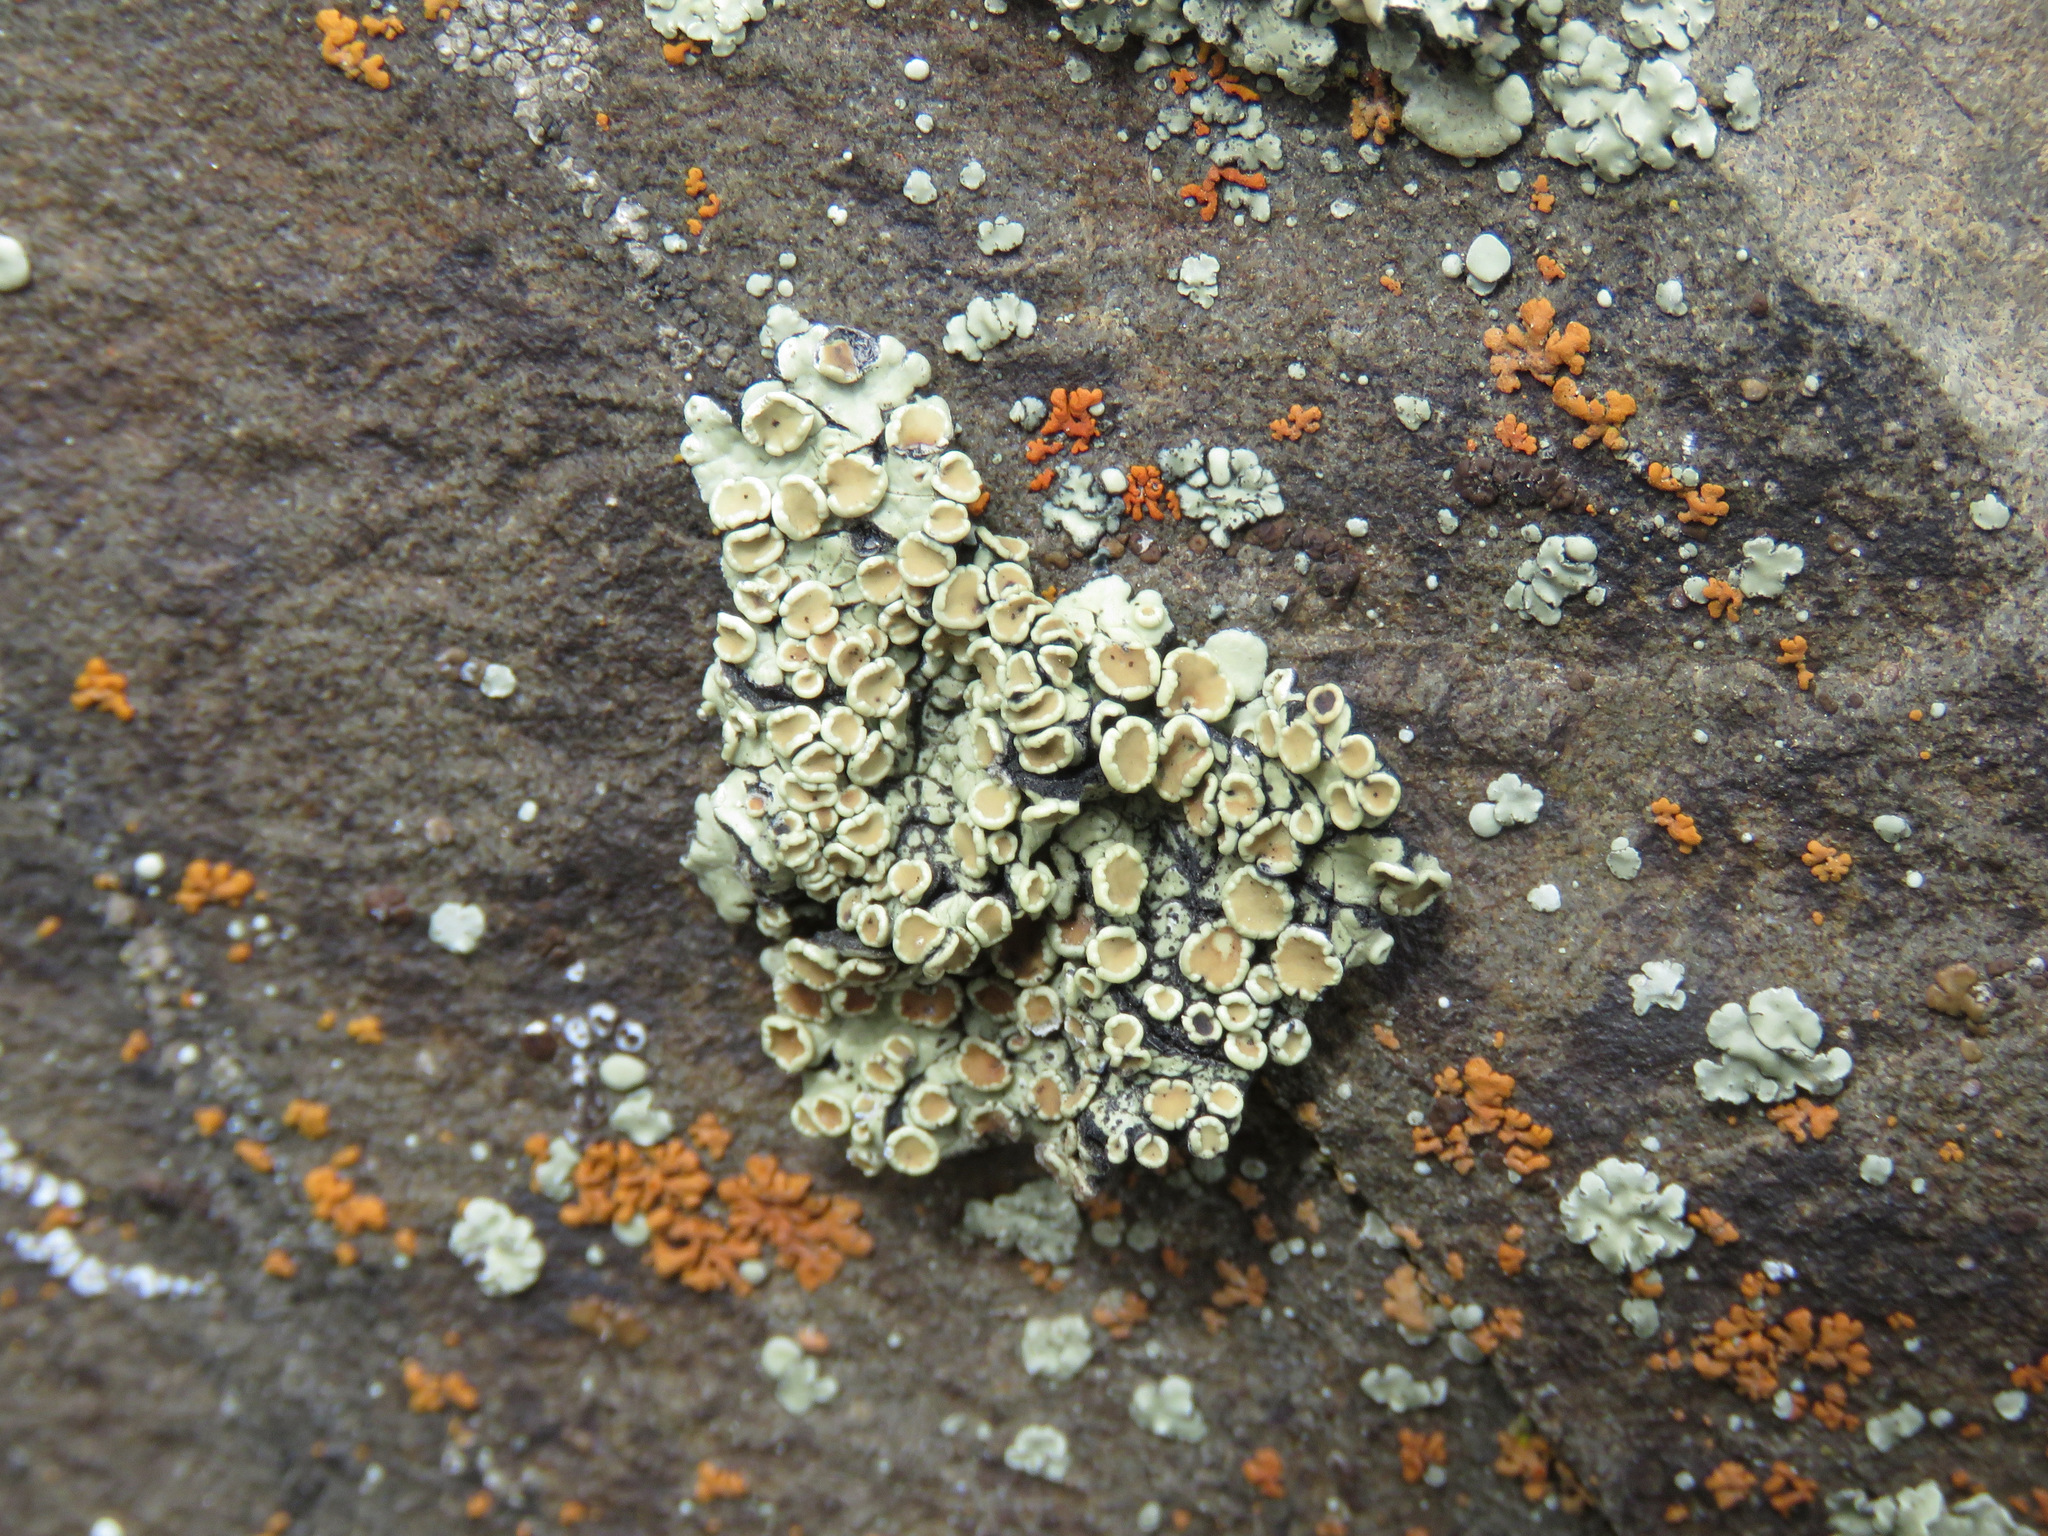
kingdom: Fungi
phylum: Ascomycota
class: Lecanoromycetes
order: Lecanorales
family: Lecanoraceae
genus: Omphalodina
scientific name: Omphalodina chrysoleuca
